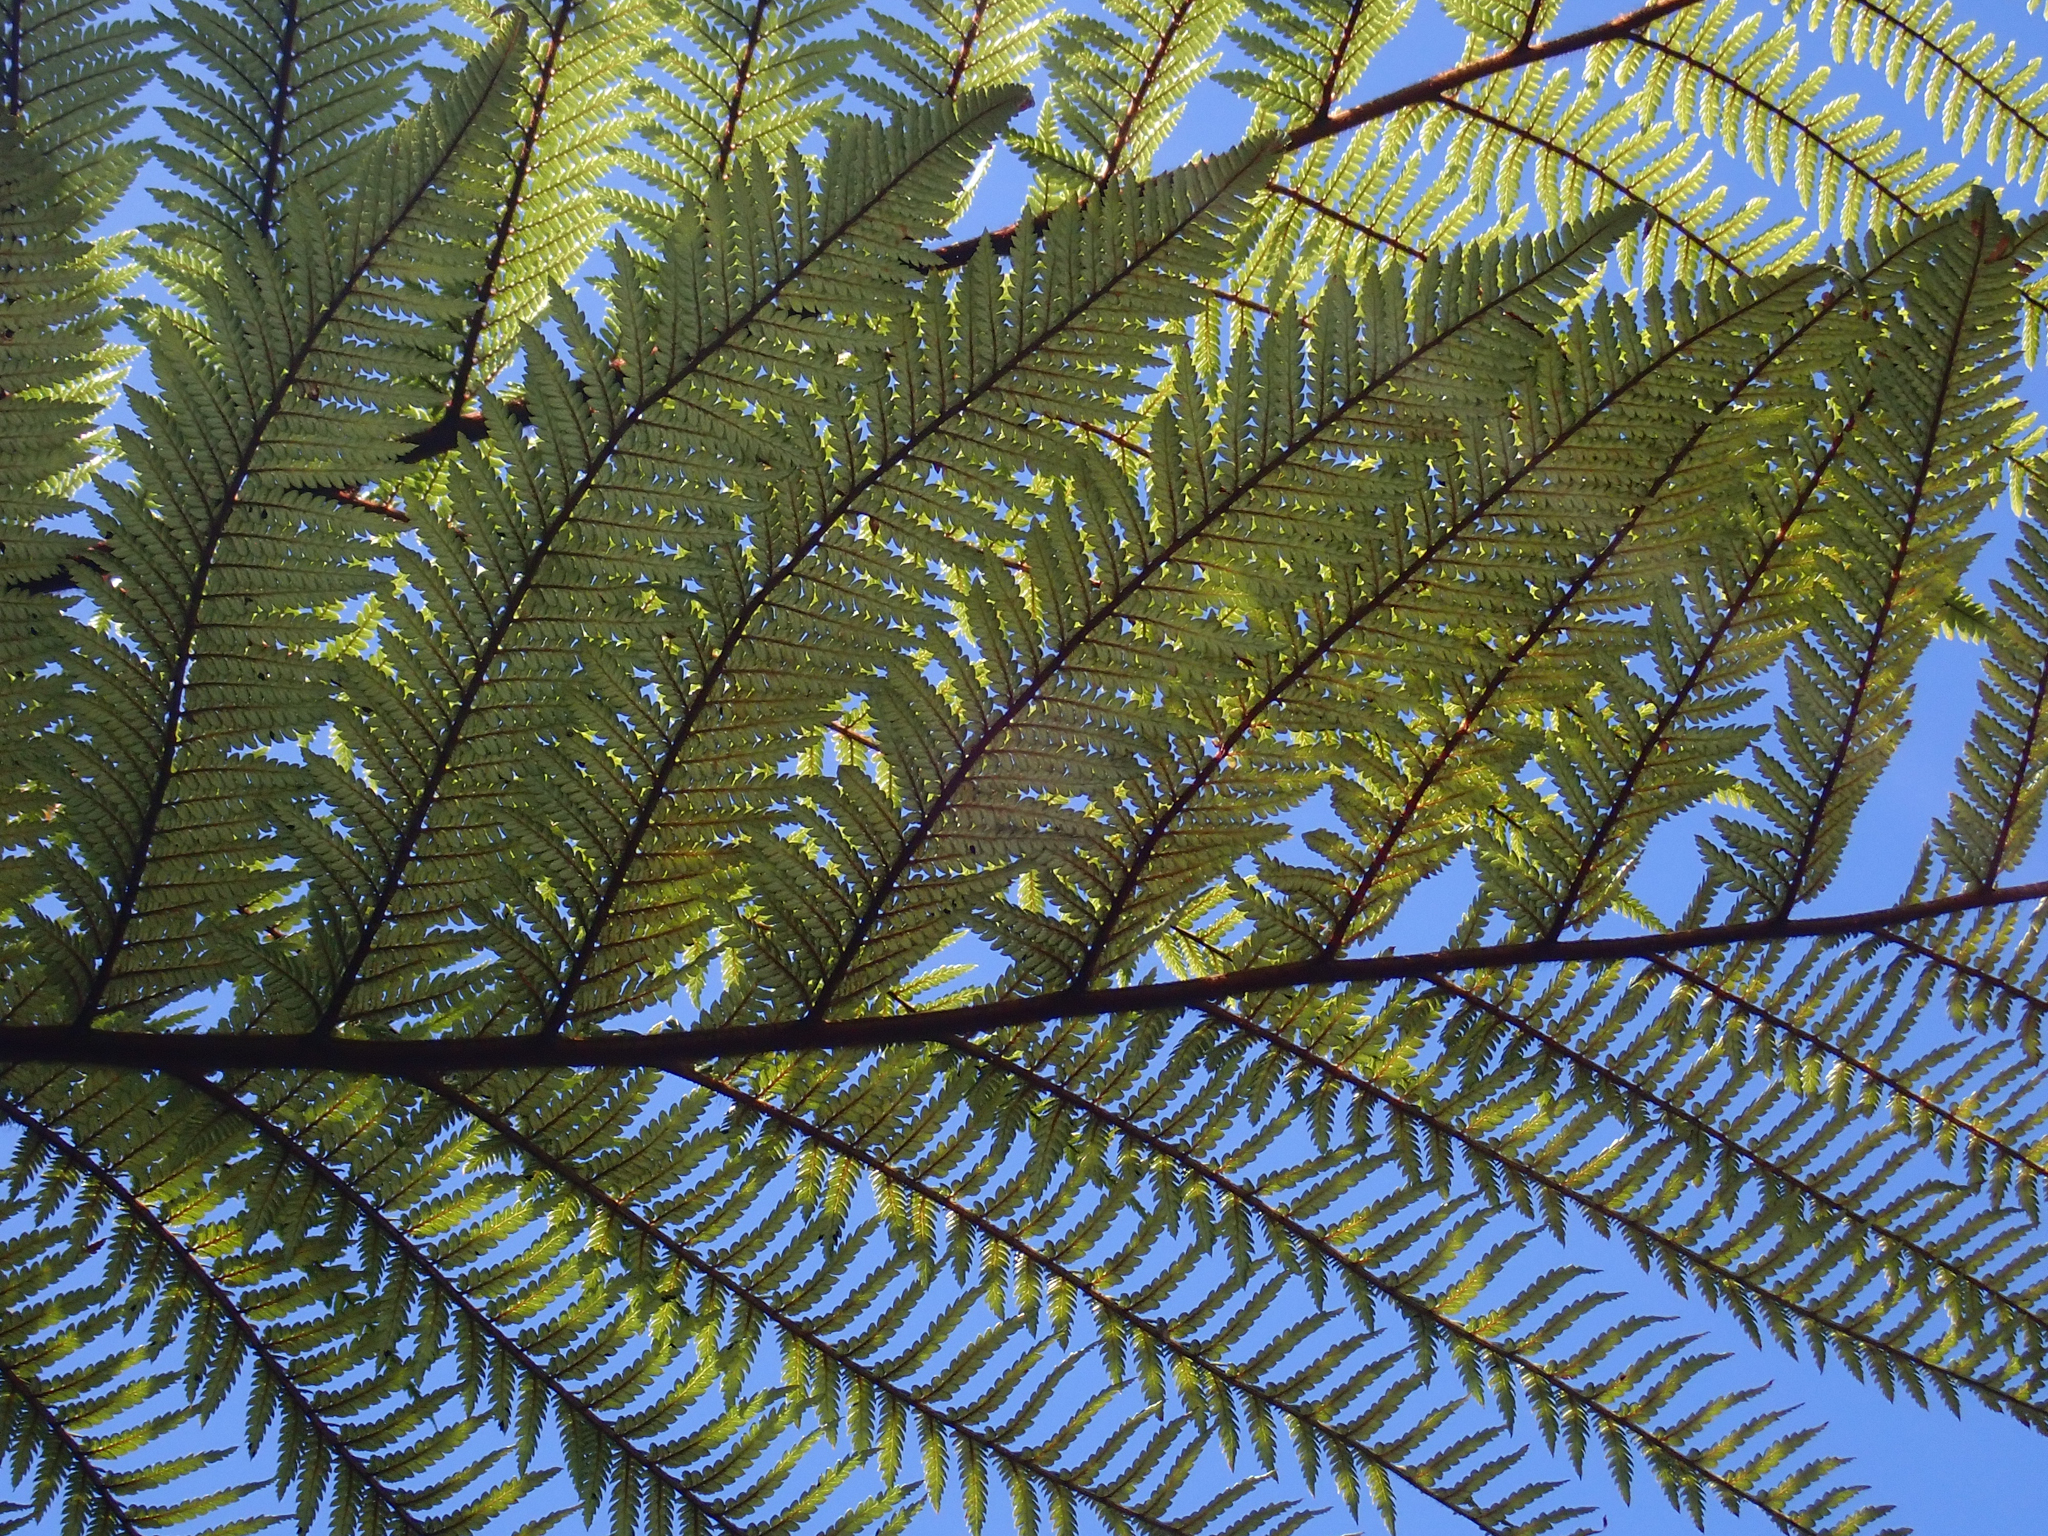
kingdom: Plantae
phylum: Tracheophyta
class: Polypodiopsida
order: Cyatheales
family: Dicksoniaceae
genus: Dicksonia
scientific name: Dicksonia squarrosa
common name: Hard treefern
